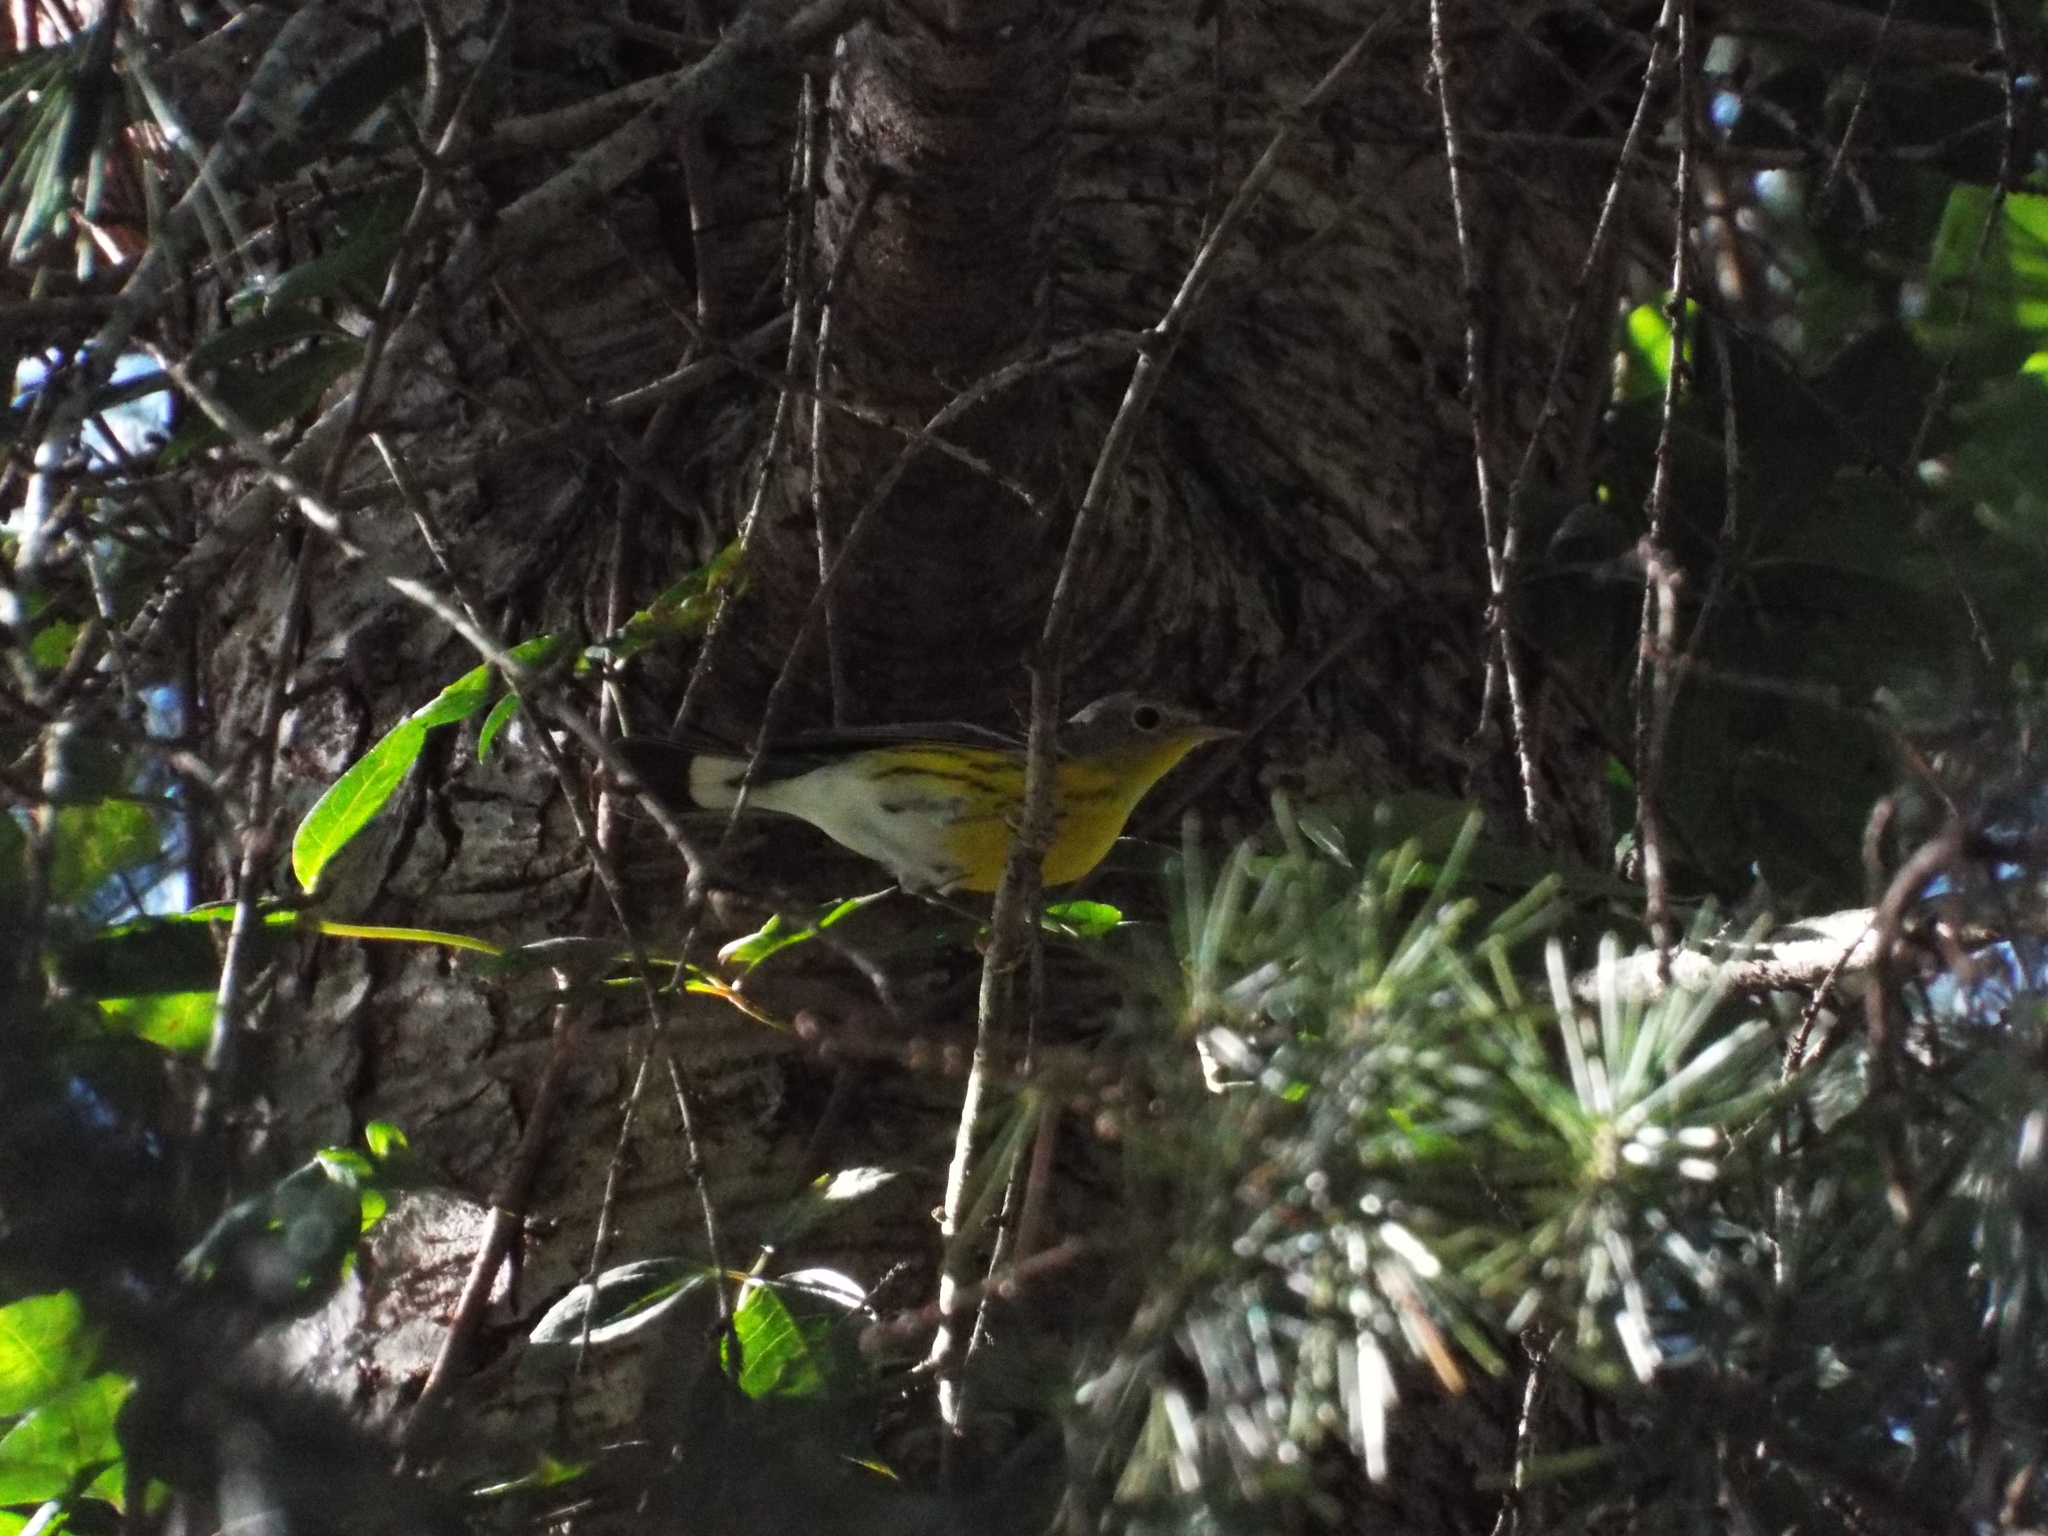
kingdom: Animalia
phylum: Chordata
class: Aves
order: Passeriformes
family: Parulidae
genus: Setophaga
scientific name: Setophaga magnolia
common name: Magnolia warbler
